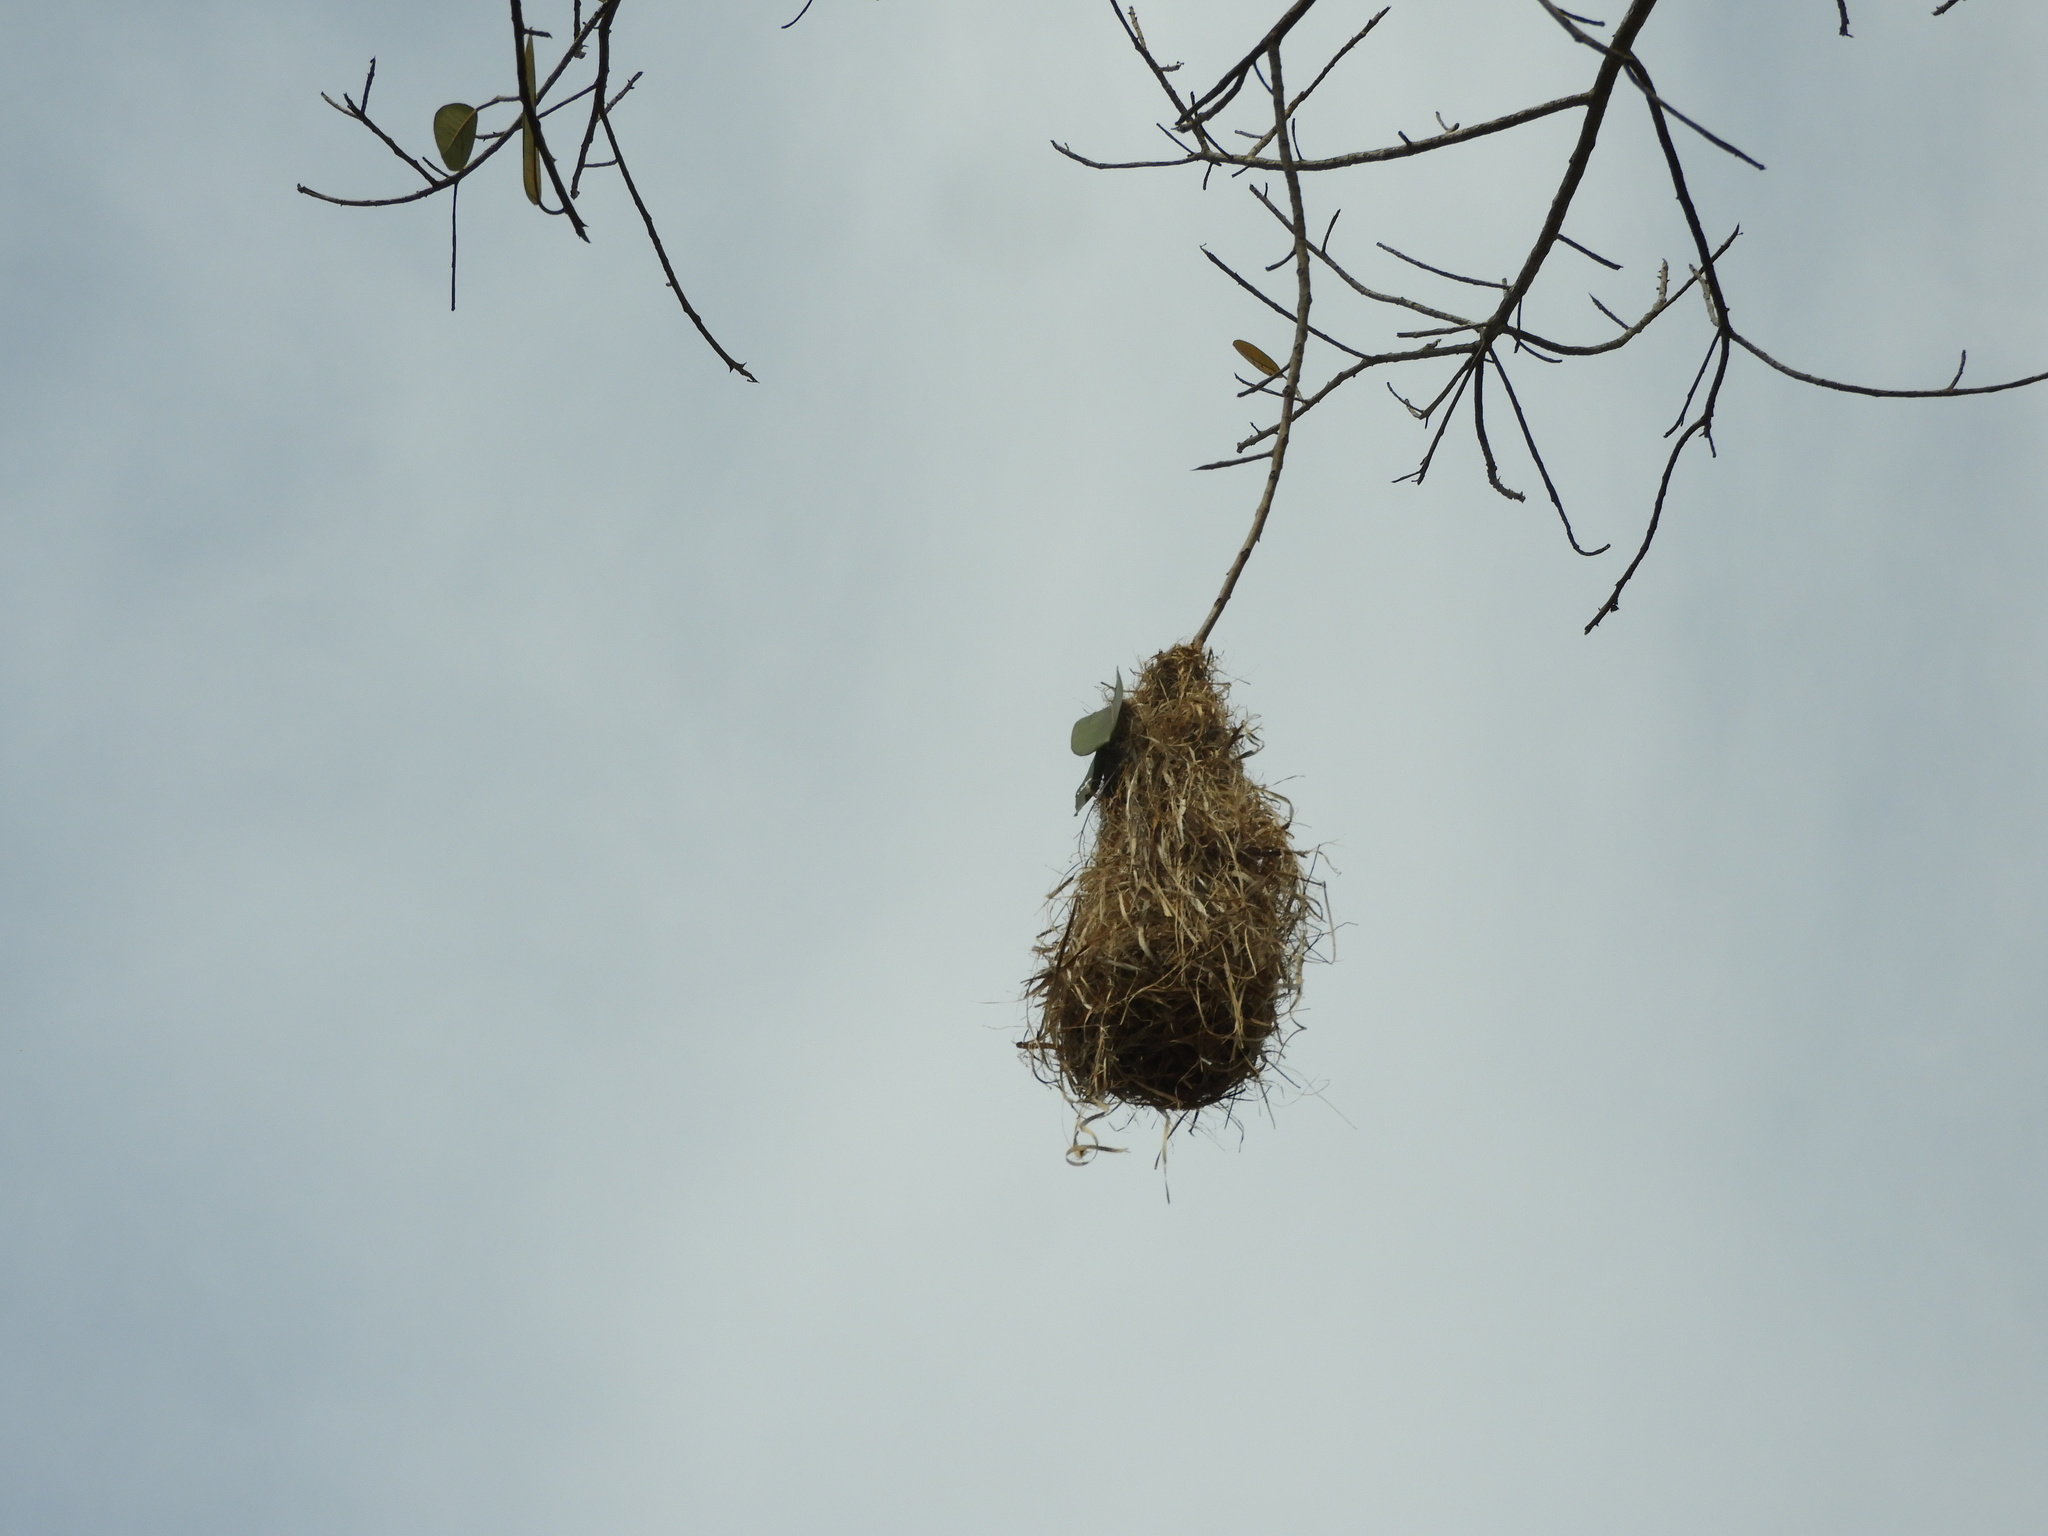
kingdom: Animalia
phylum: Chordata
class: Aves
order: Passeriformes
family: Icteridae
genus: Icterus
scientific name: Icterus
